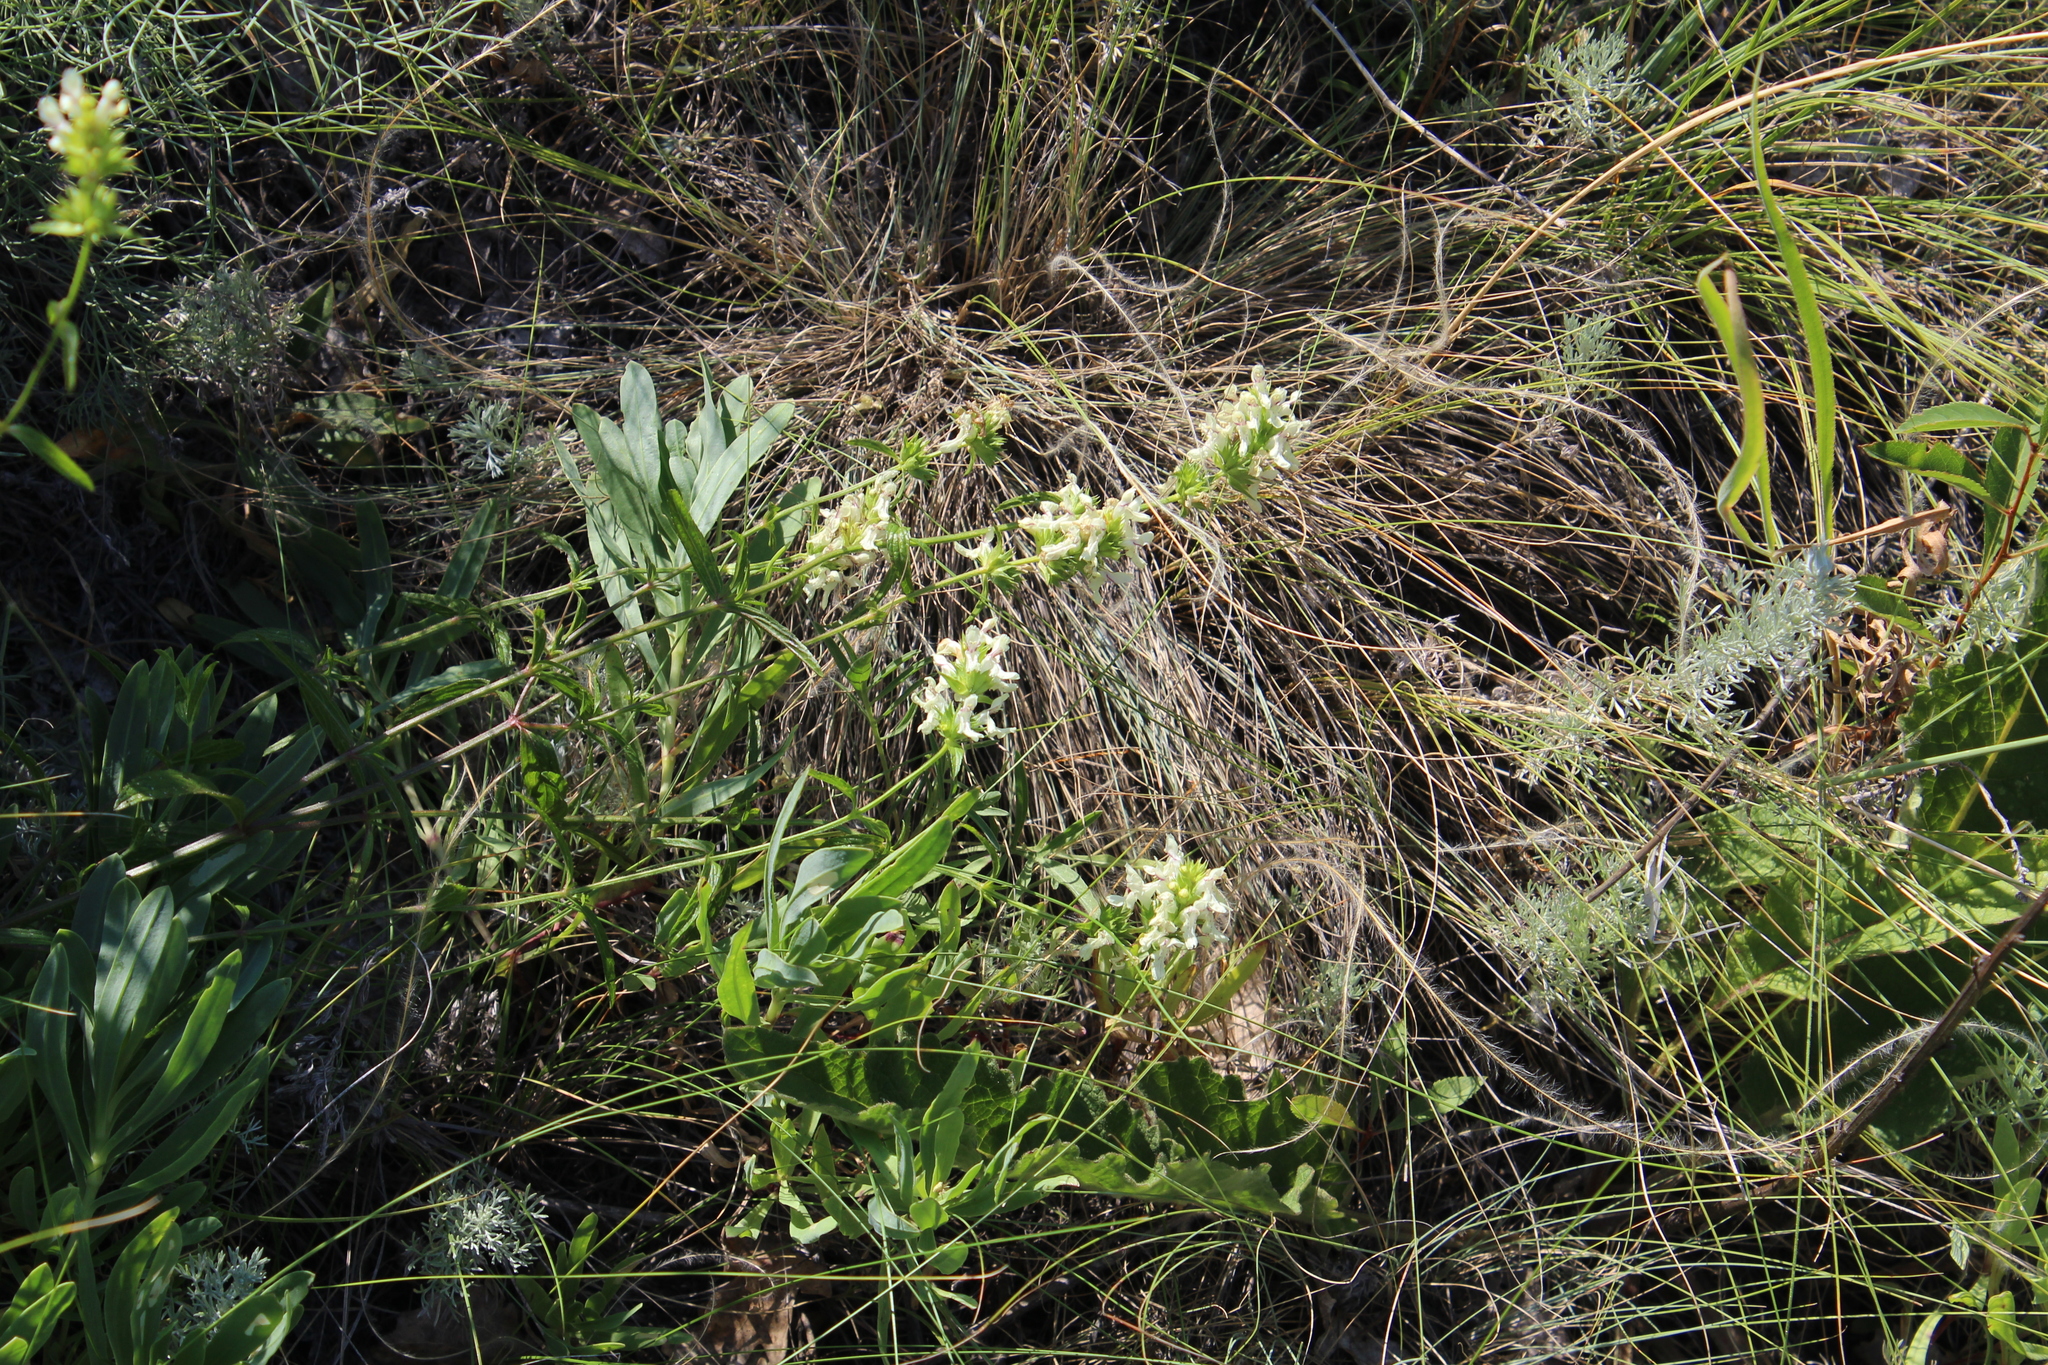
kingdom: Plantae
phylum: Tracheophyta
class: Magnoliopsida
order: Lamiales
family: Lamiaceae
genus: Stachys
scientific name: Stachys recta
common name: Perennial yellow-woundwort
